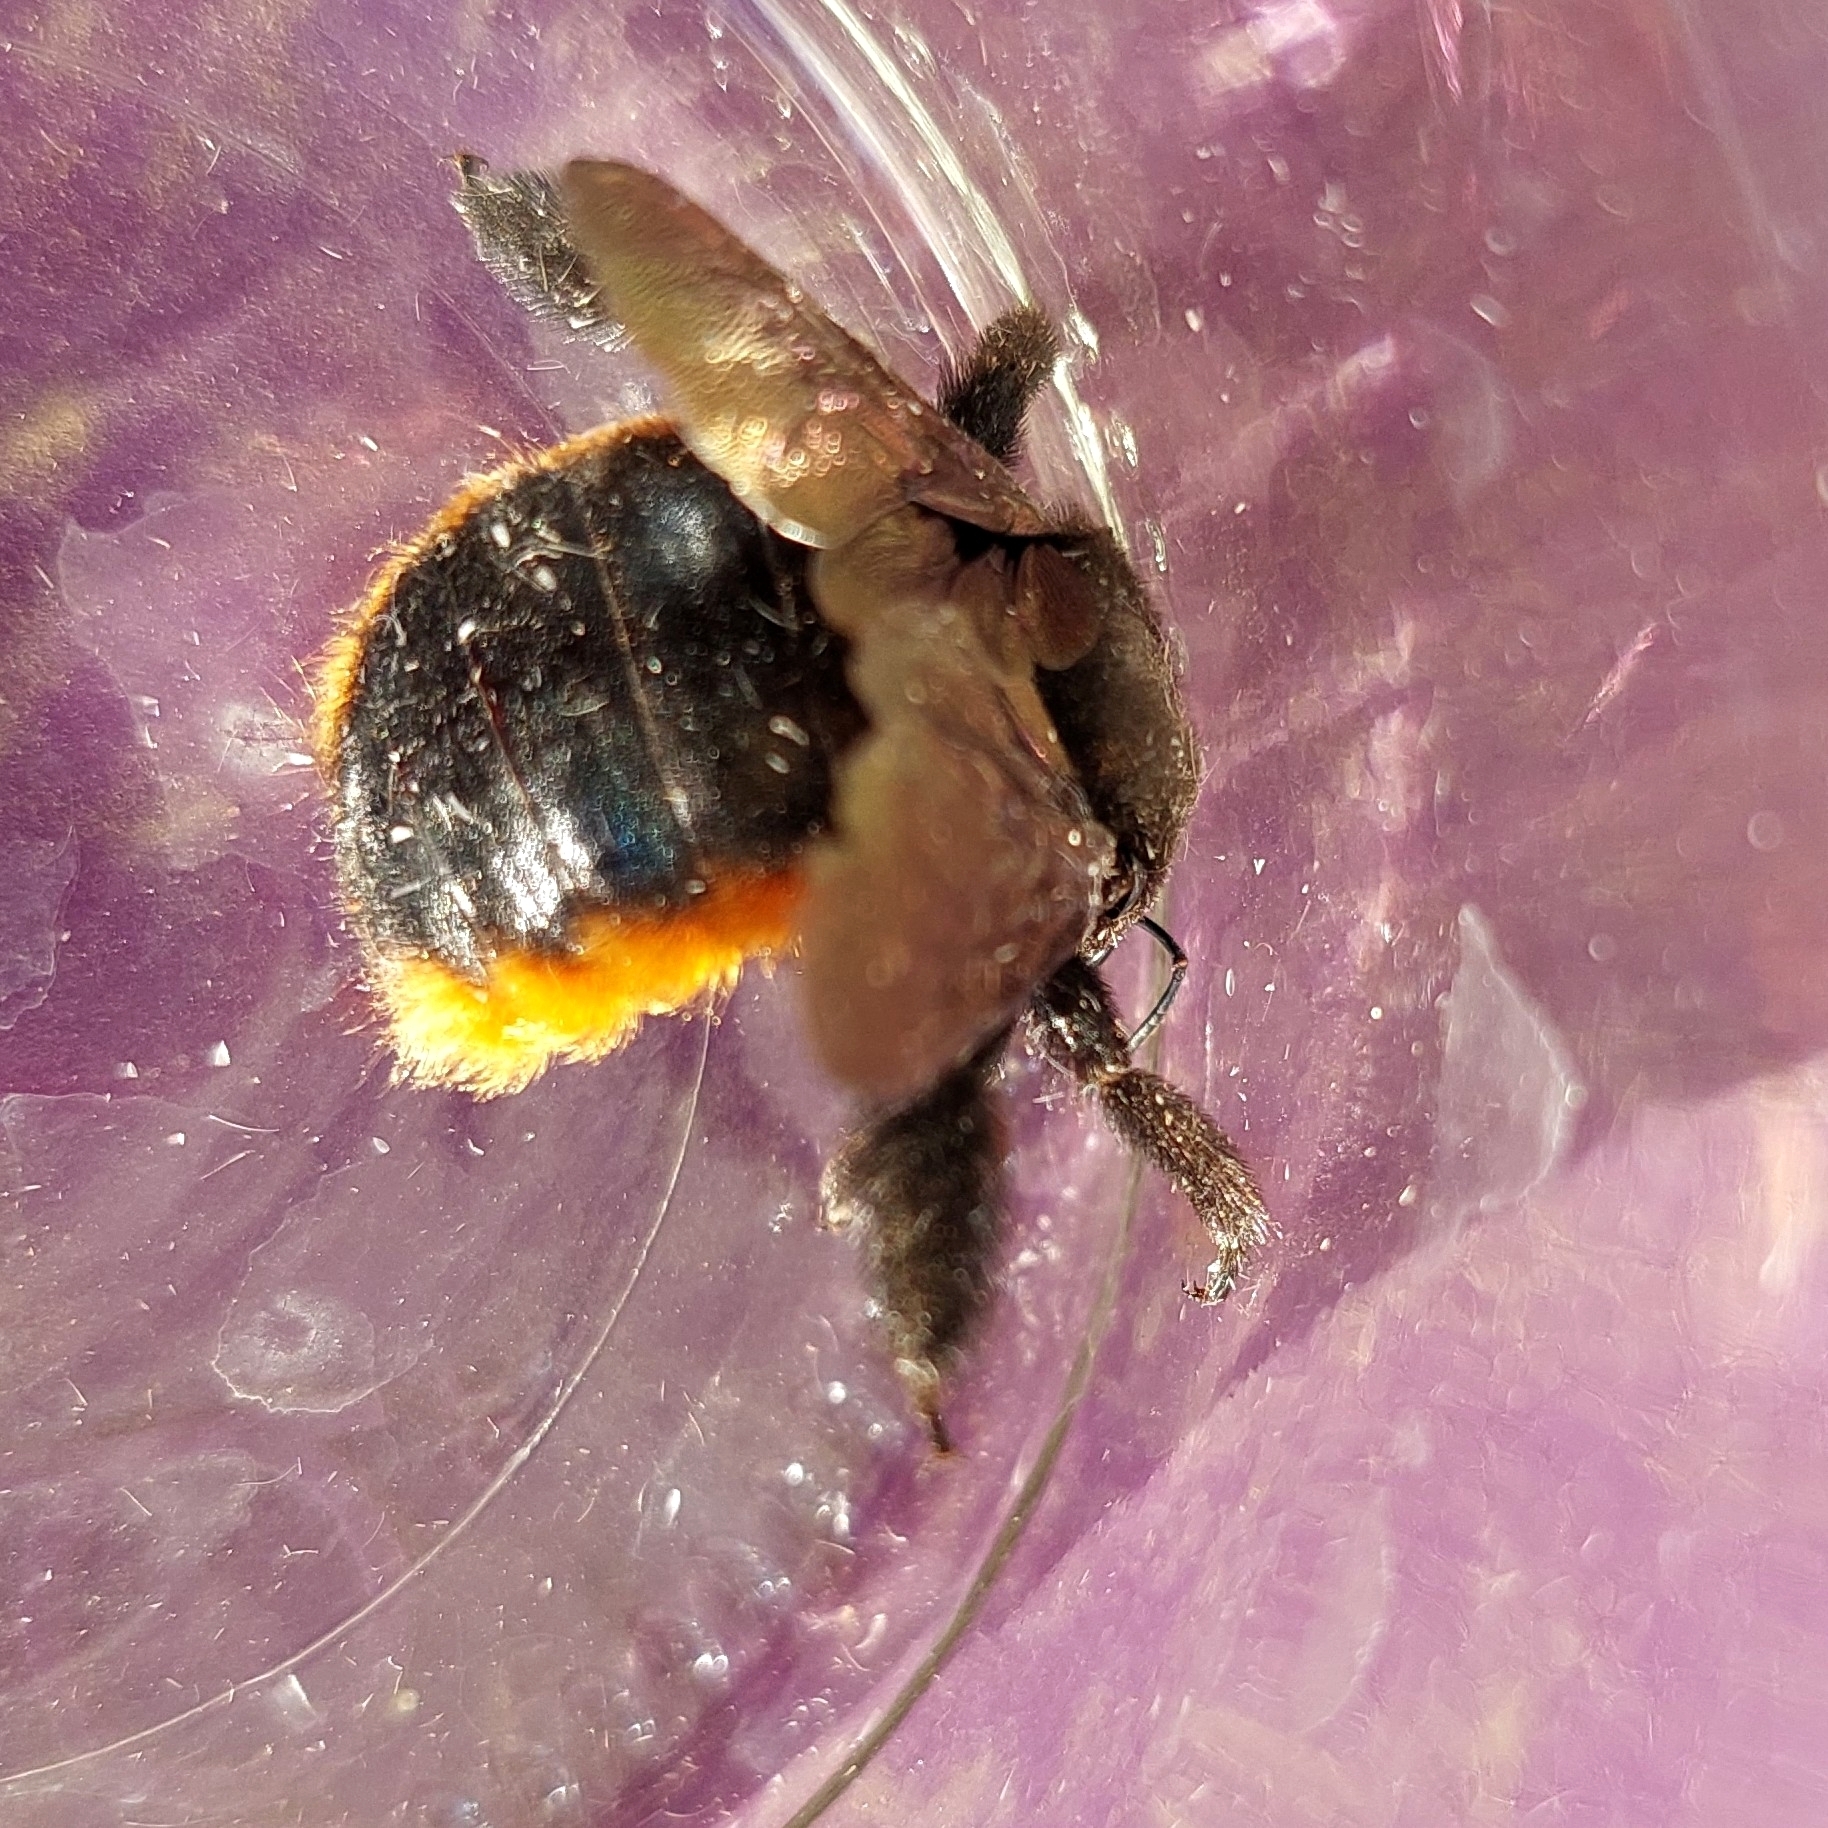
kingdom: Animalia
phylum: Arthropoda
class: Insecta
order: Hymenoptera
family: Apidae
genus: Xylocopa
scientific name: Xylocopa augusti
